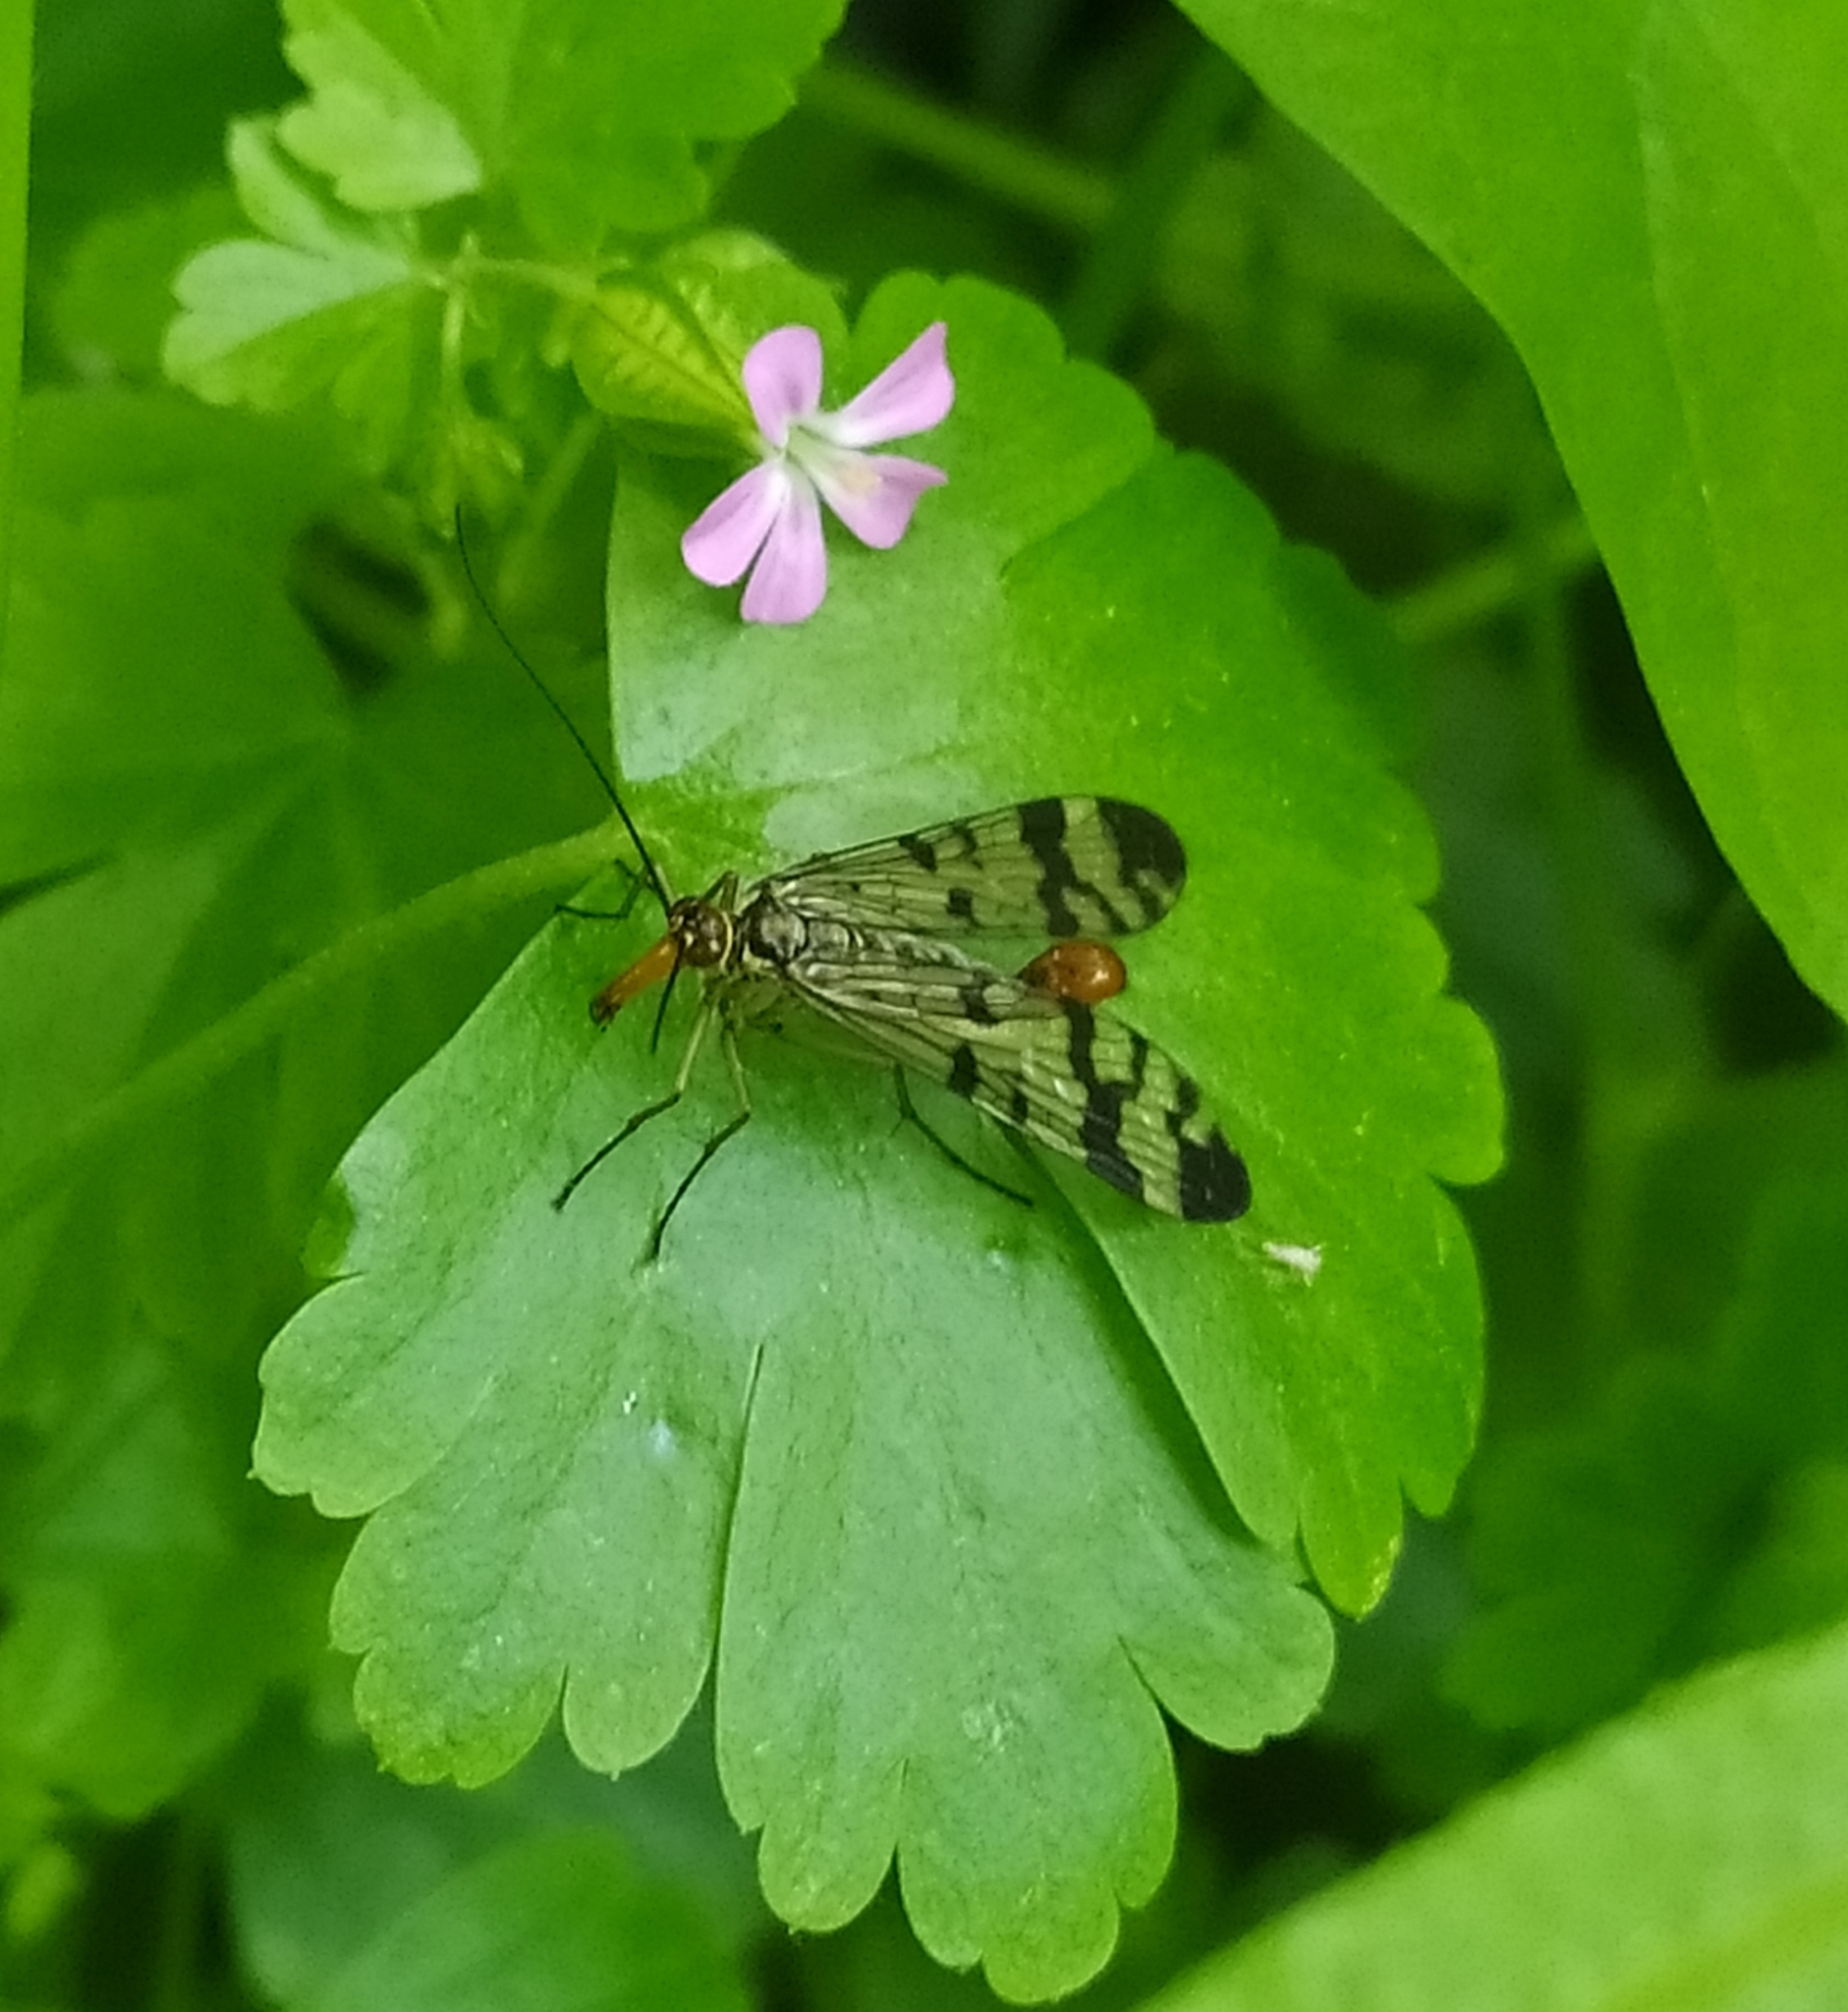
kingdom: Animalia
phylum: Arthropoda
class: Insecta
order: Mecoptera
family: Panorpidae
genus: Panorpa
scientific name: Panorpa communis
